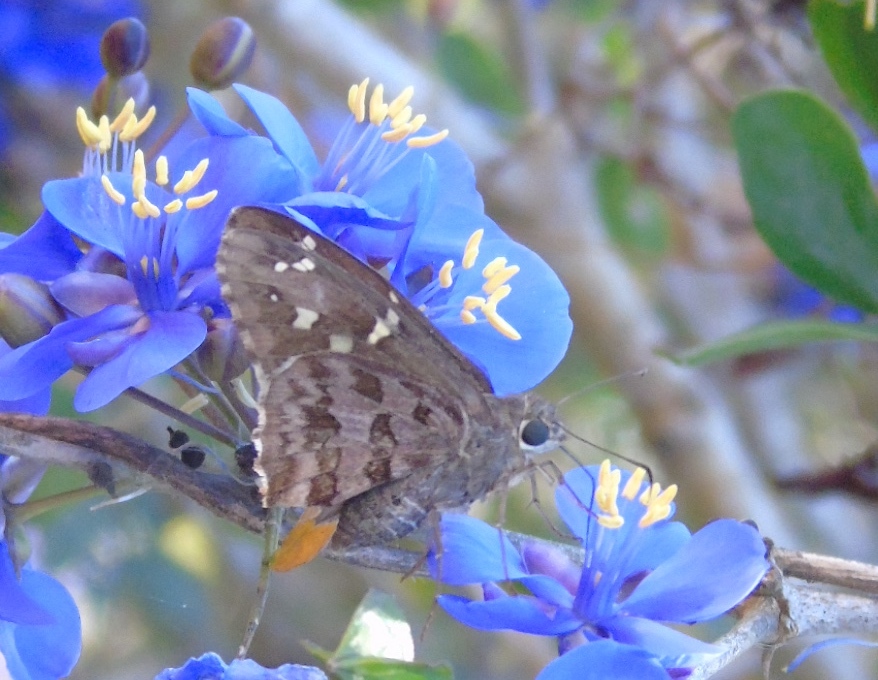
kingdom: Animalia
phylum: Arthropoda
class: Insecta
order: Lepidoptera
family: Hesperiidae
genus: Thorybes
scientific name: Thorybes
